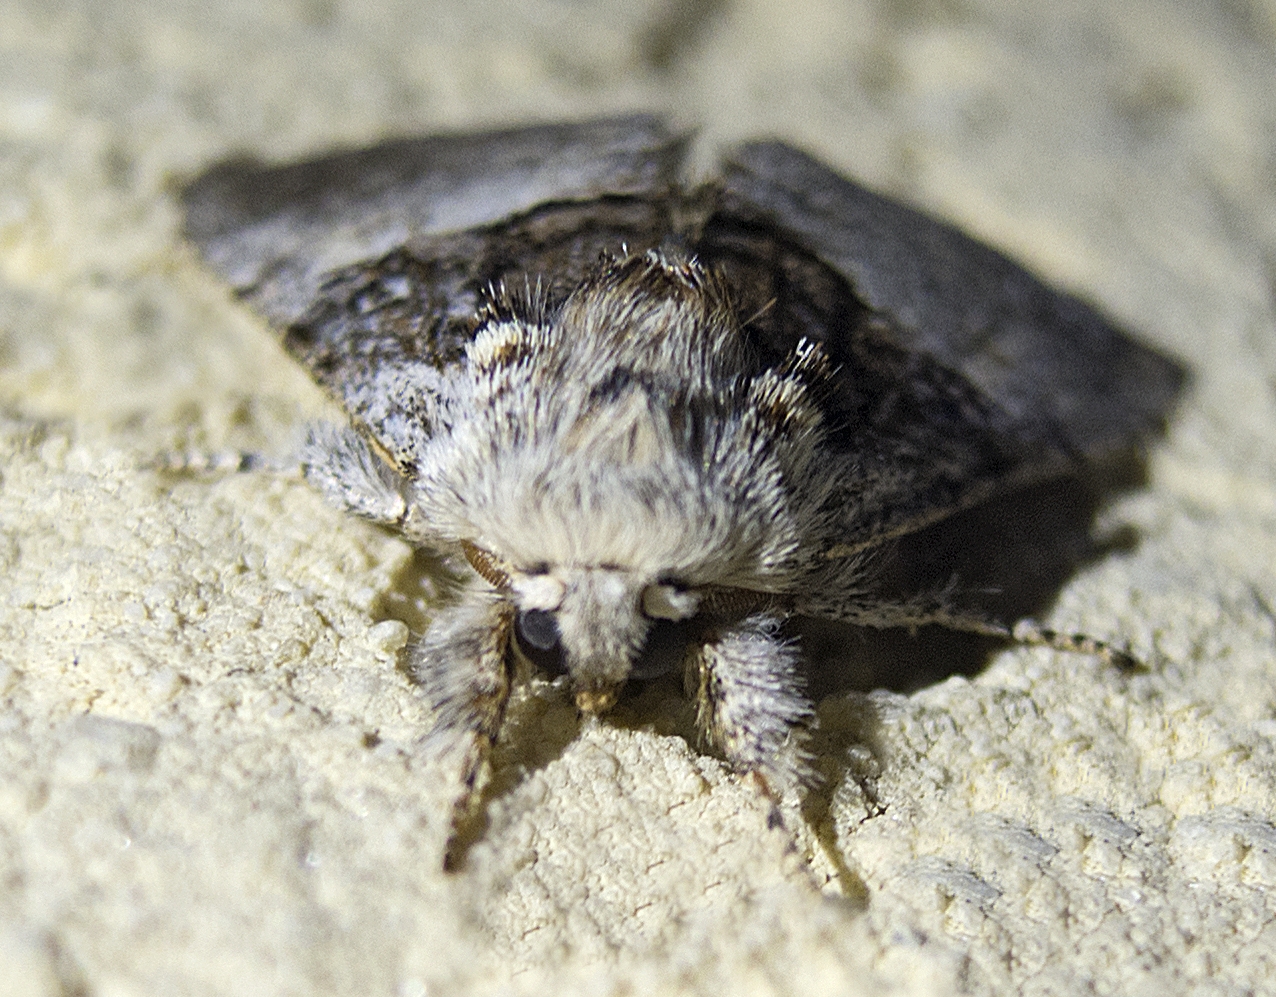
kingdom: Animalia
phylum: Arthropoda
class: Insecta
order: Lepidoptera
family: Noctuidae
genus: Colocasia
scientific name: Colocasia coryli
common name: Nut-tree tussock
